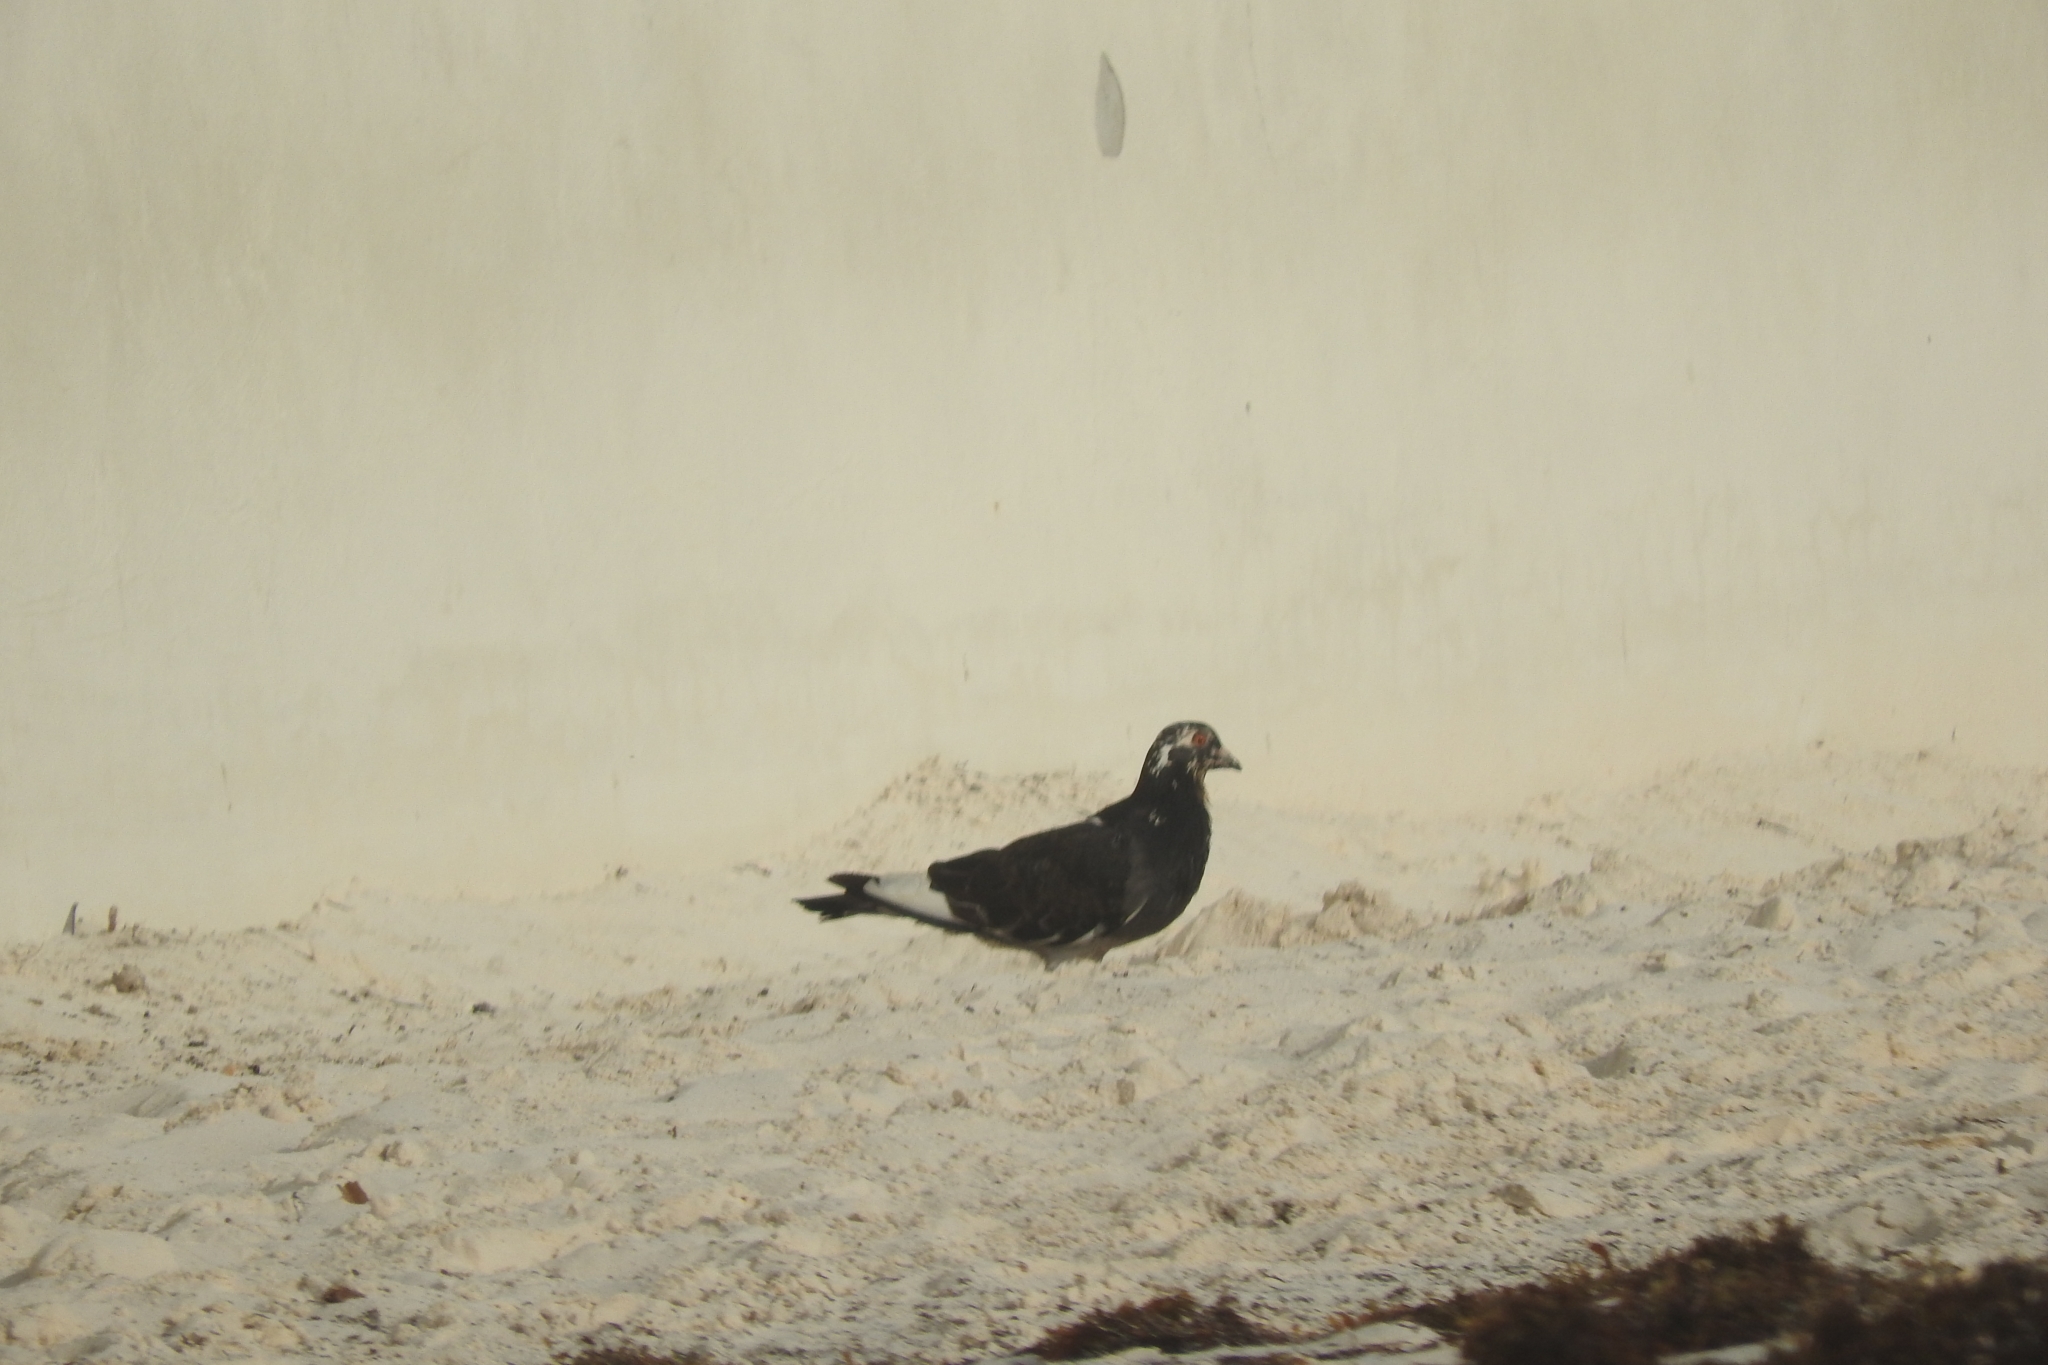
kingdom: Animalia
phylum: Chordata
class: Aves
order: Columbiformes
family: Columbidae
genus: Columba
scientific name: Columba livia
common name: Rock pigeon
